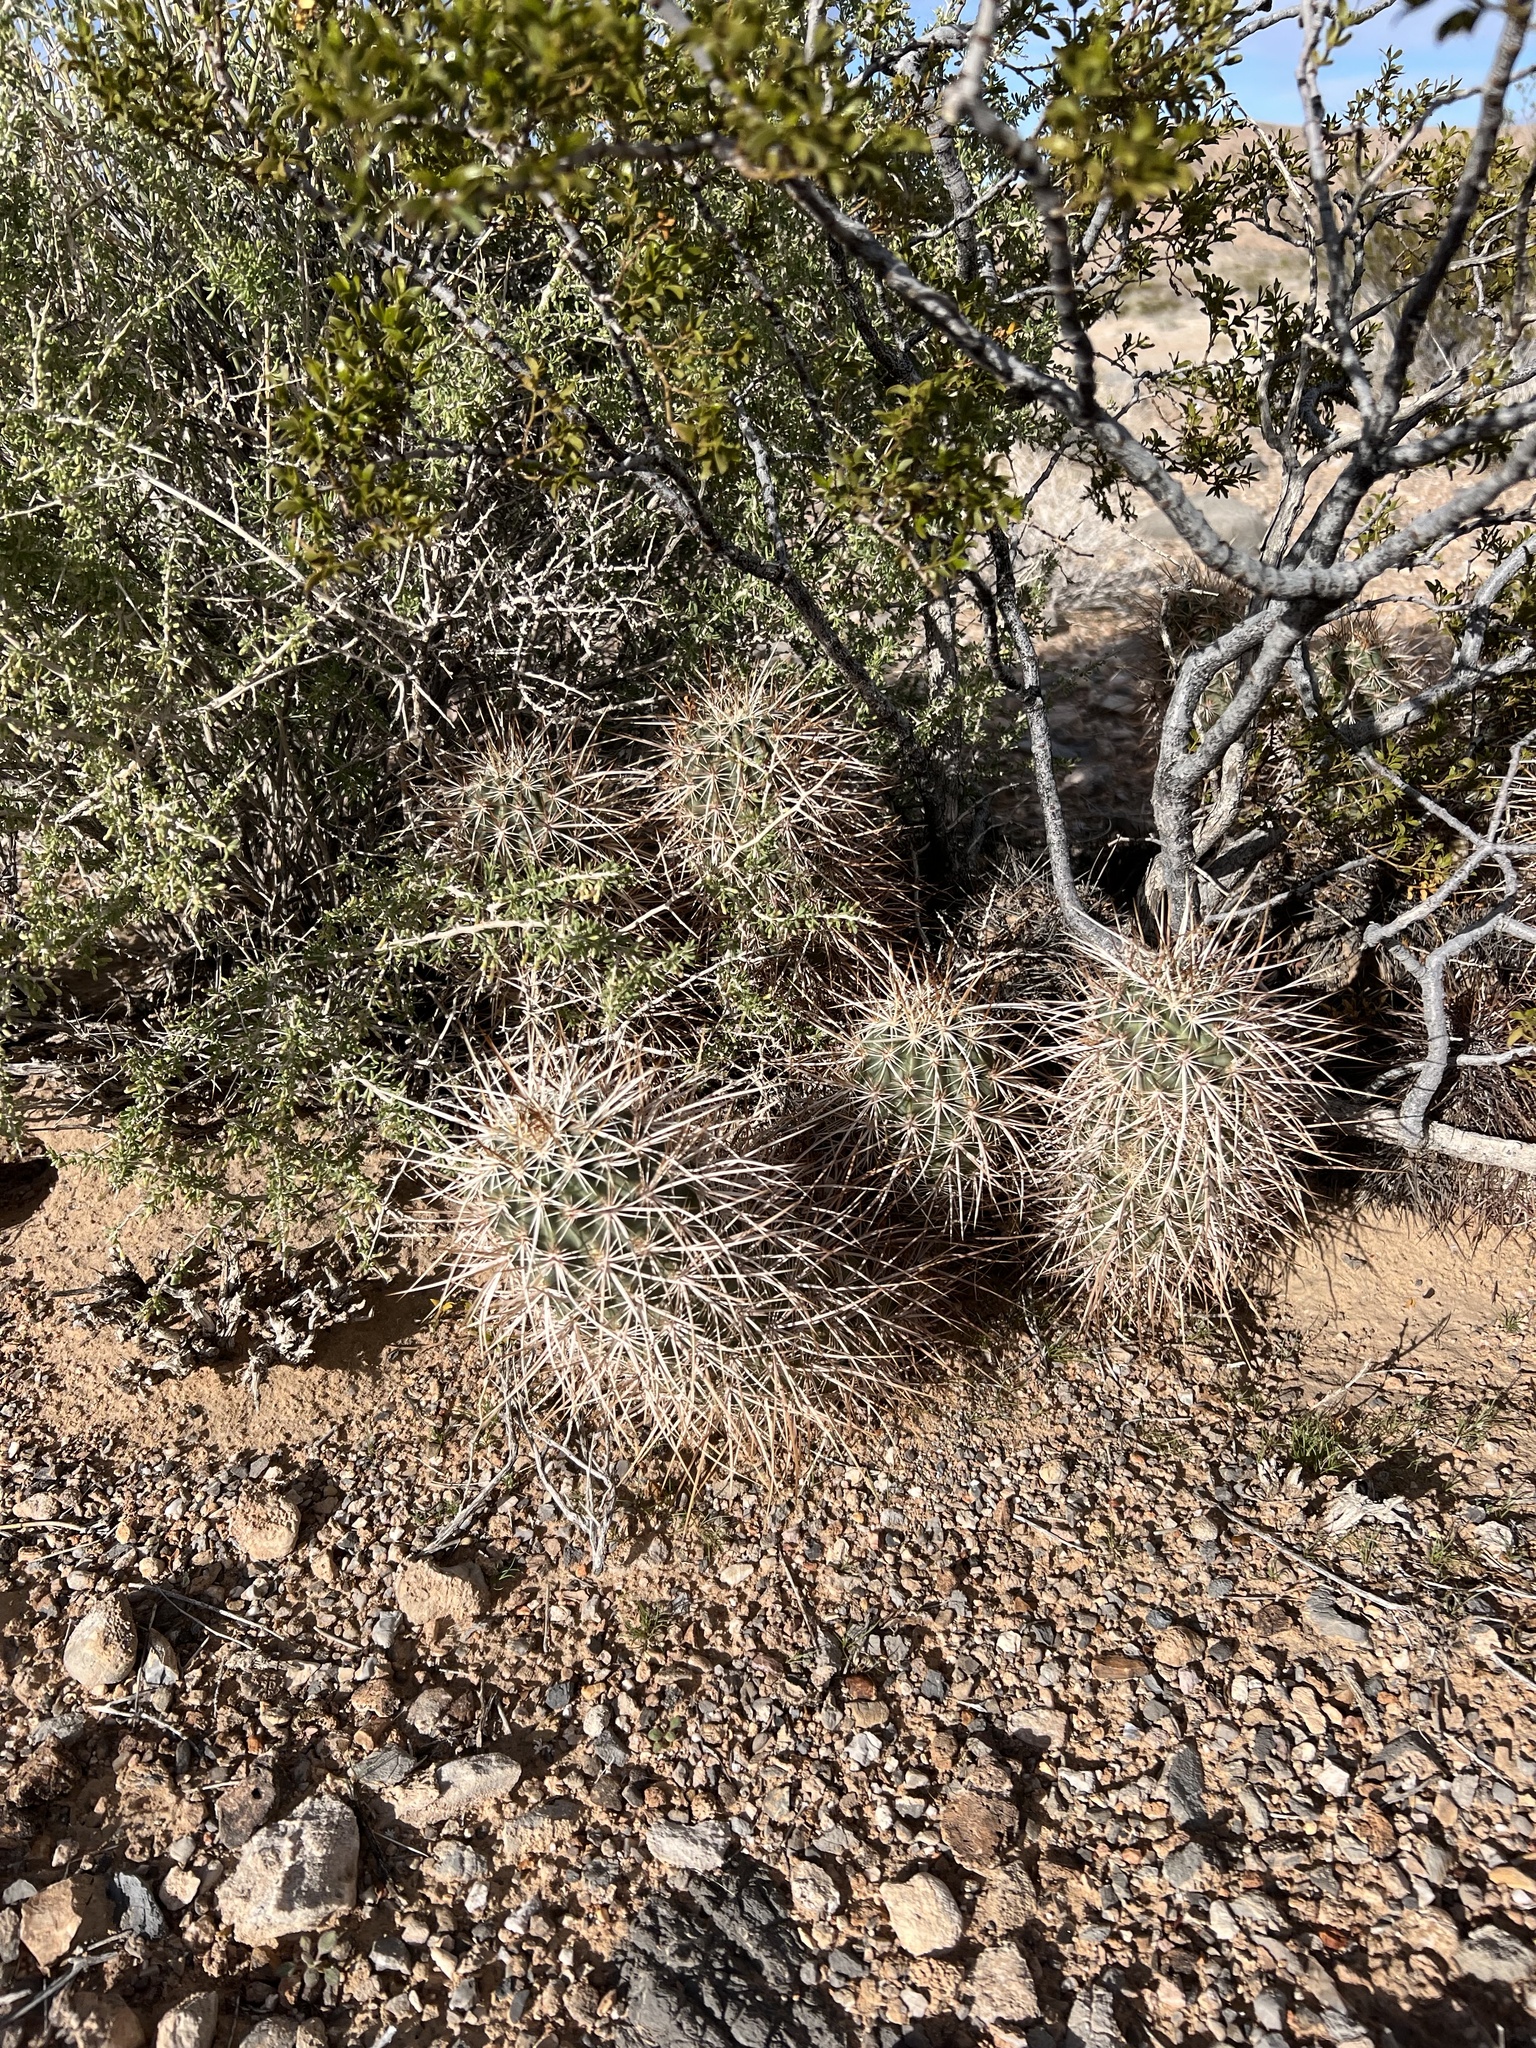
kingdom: Plantae
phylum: Tracheophyta
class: Magnoliopsida
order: Caryophyllales
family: Cactaceae
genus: Echinocereus
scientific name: Echinocereus engelmannii
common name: Engelmann's hedgehog cactus
